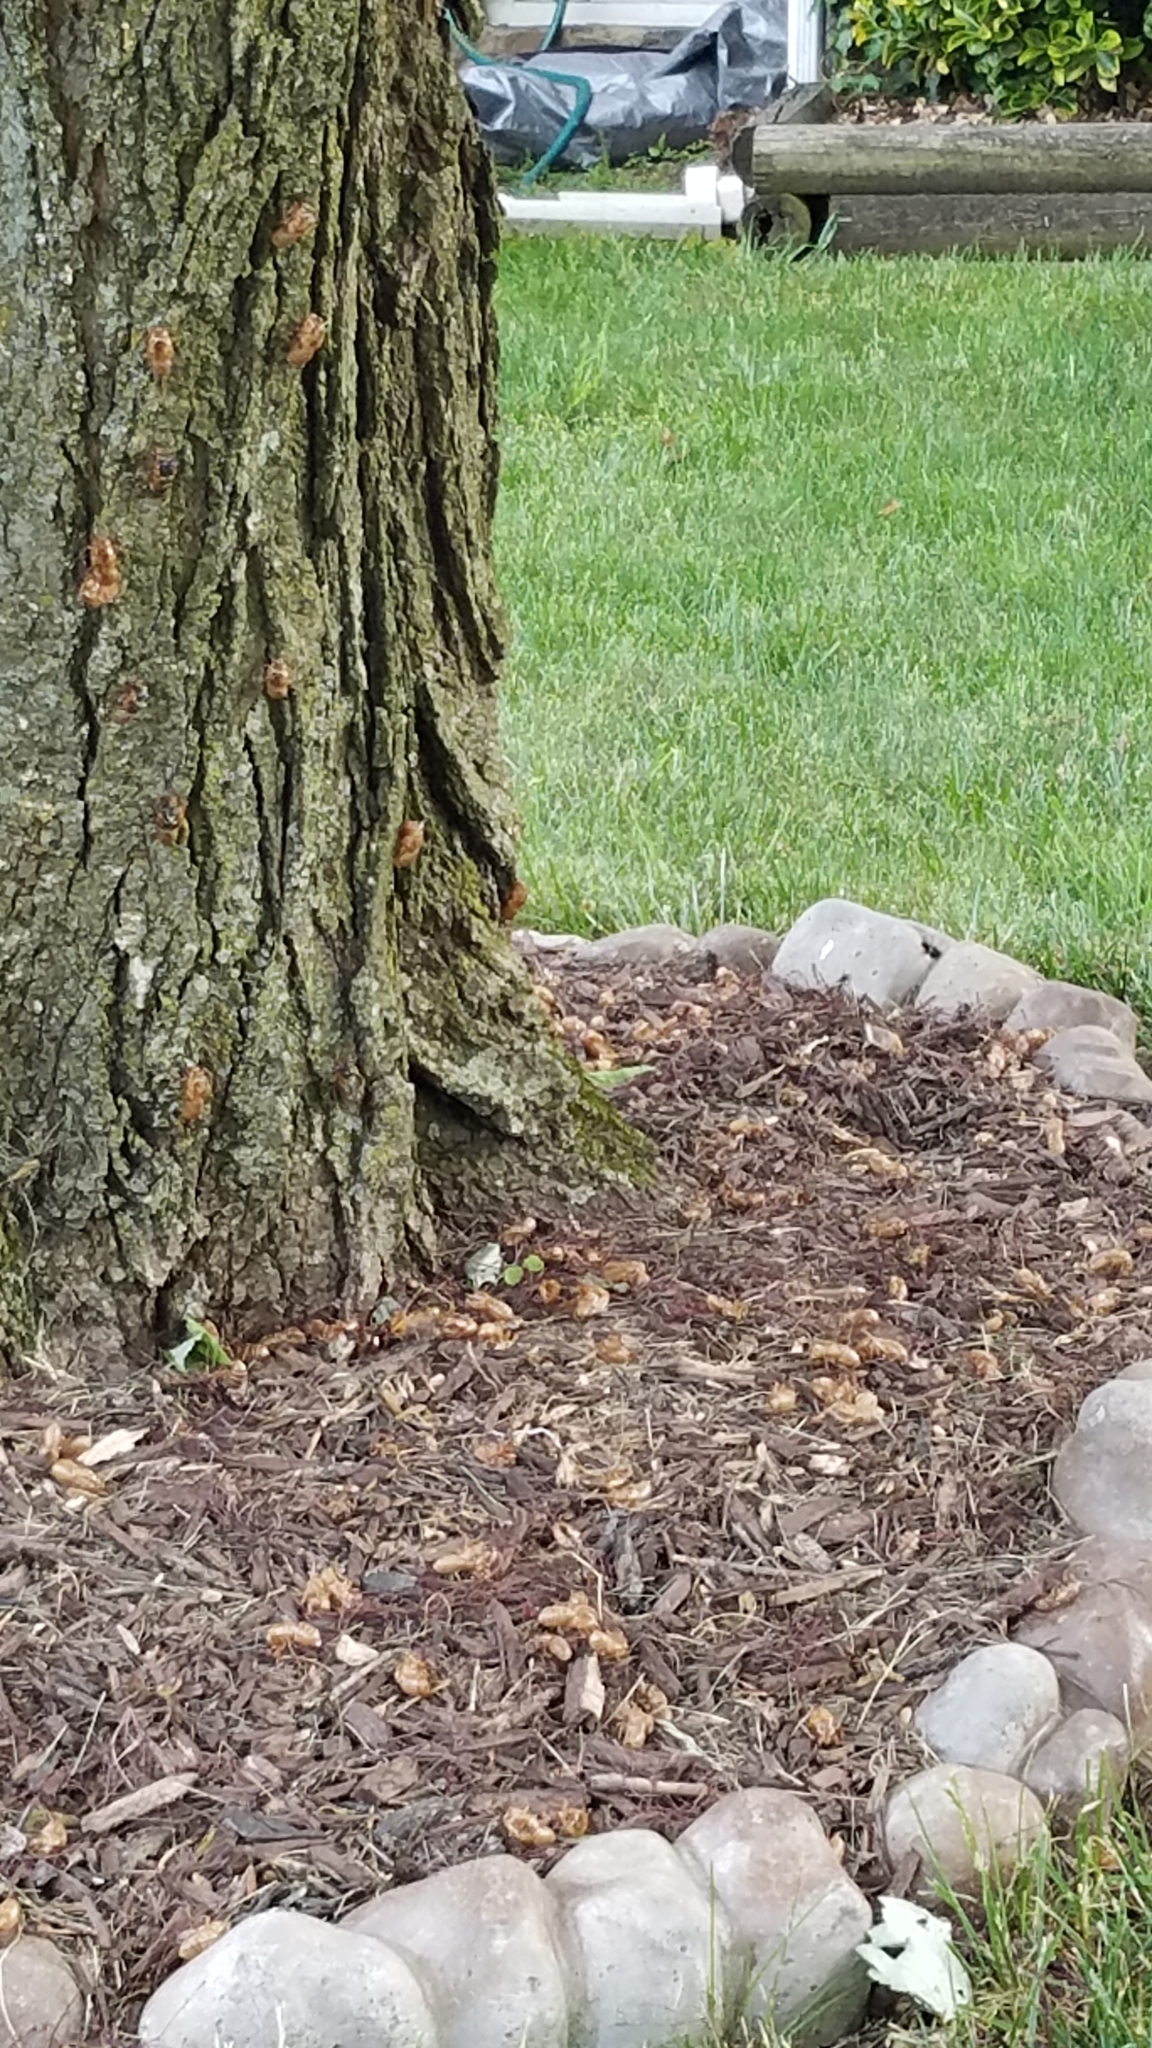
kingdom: Animalia
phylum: Arthropoda
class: Insecta
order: Hemiptera
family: Cicadidae
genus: Magicicada
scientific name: Magicicada
